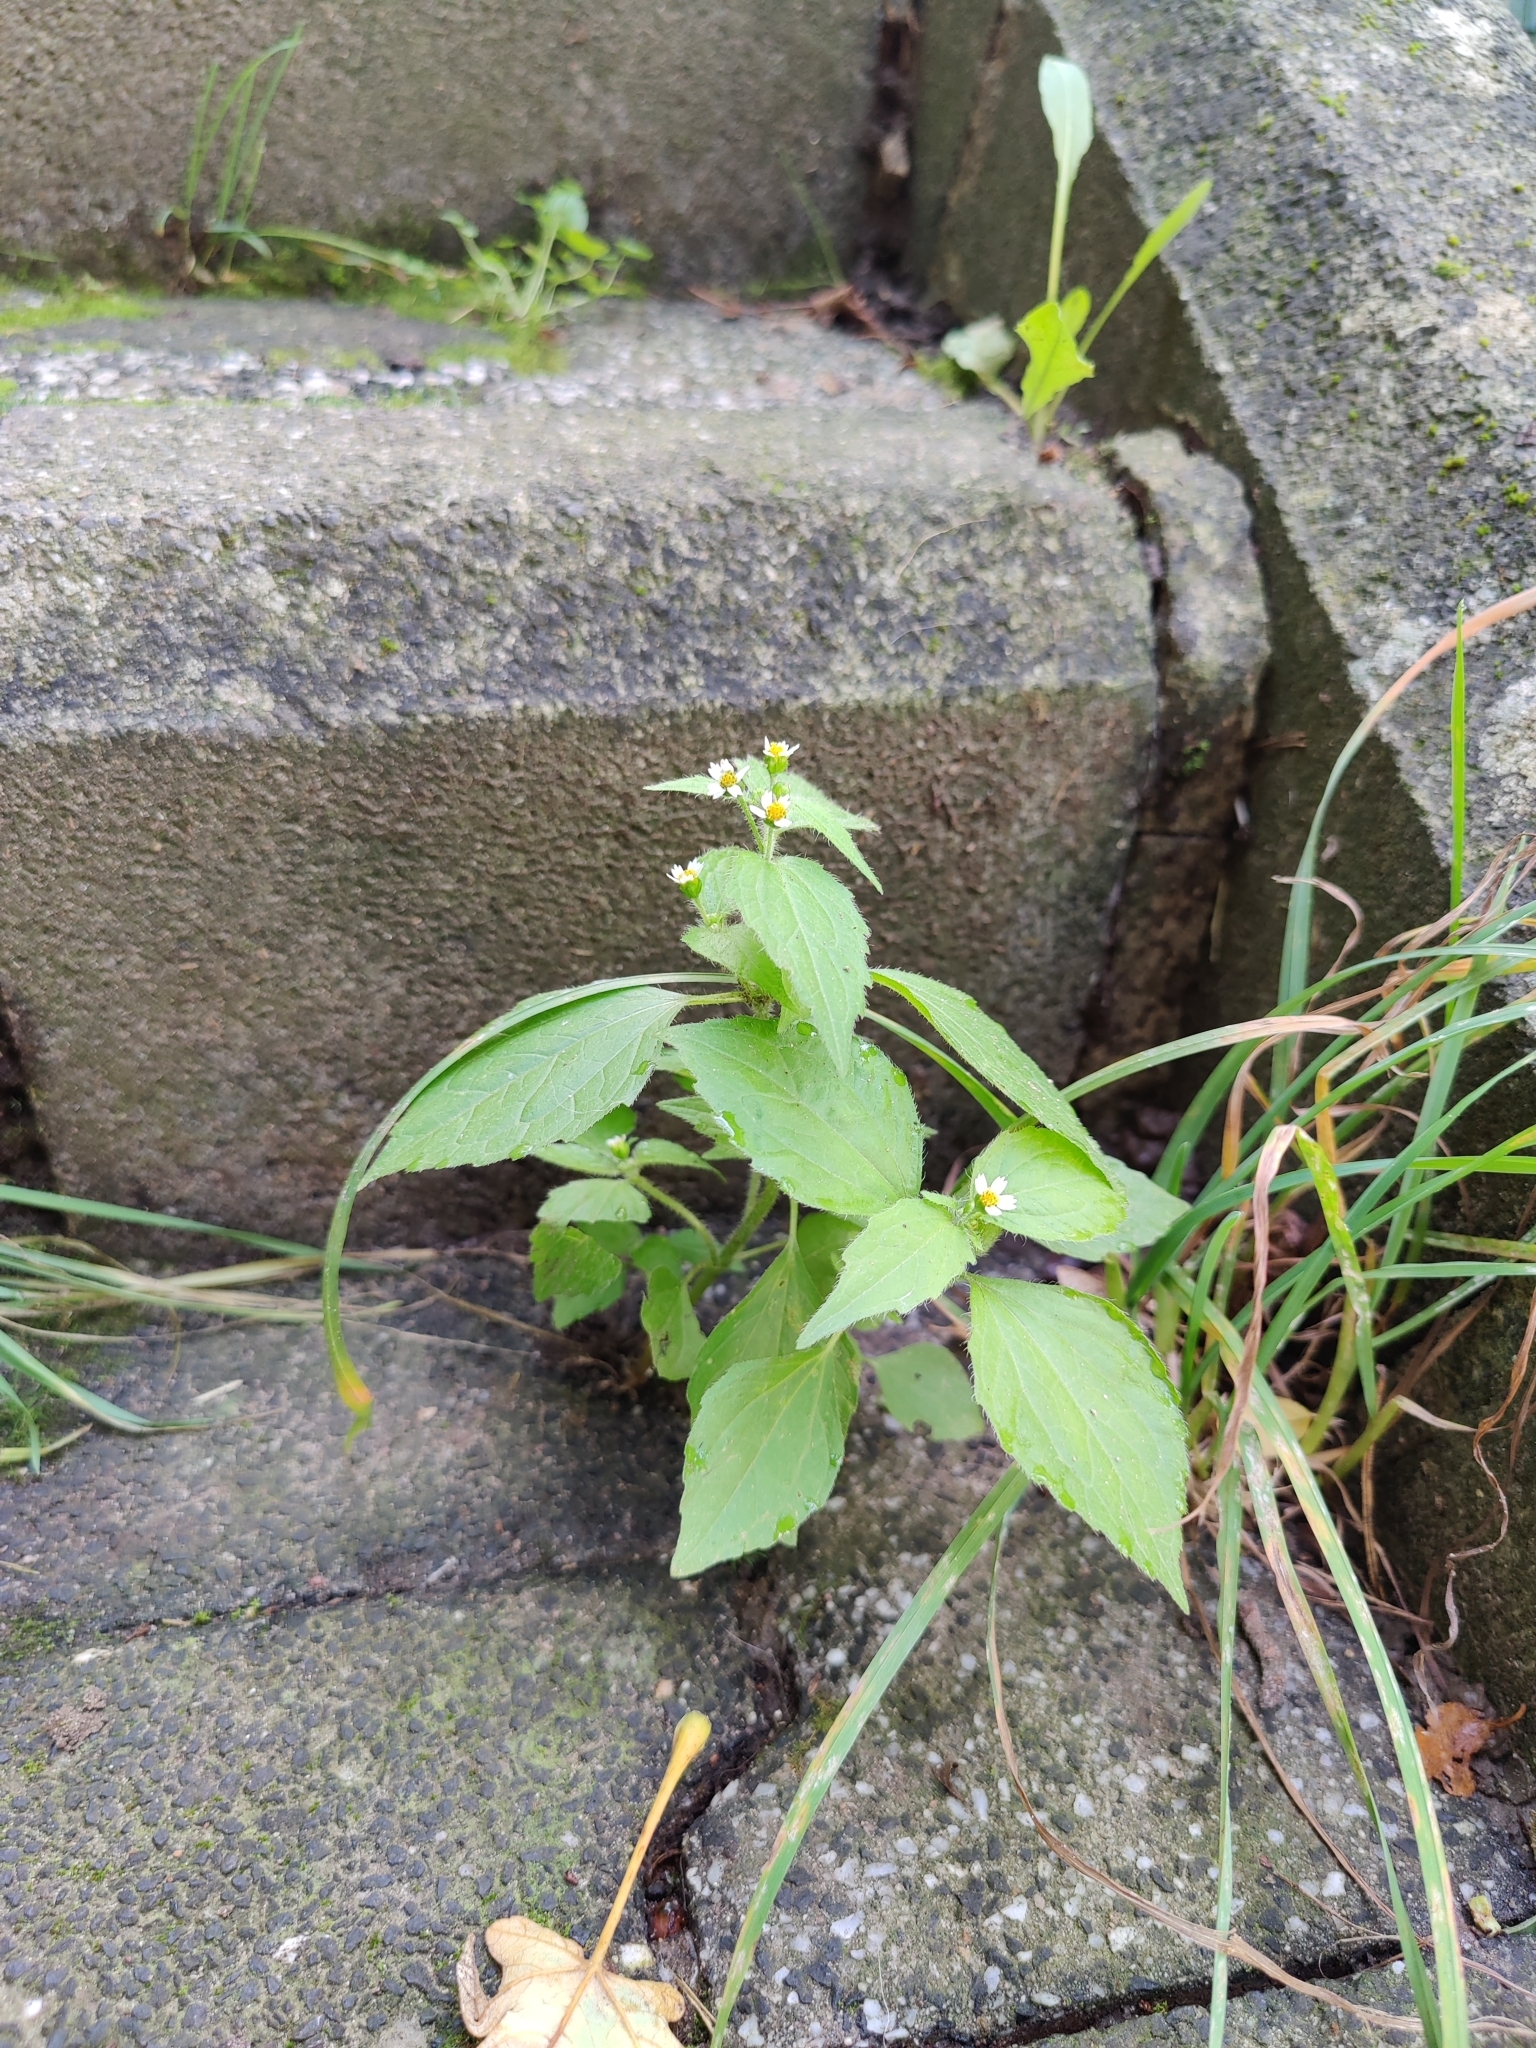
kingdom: Plantae
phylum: Tracheophyta
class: Magnoliopsida
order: Asterales
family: Asteraceae
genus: Galinsoga
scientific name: Galinsoga quadriradiata
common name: Shaggy soldier
